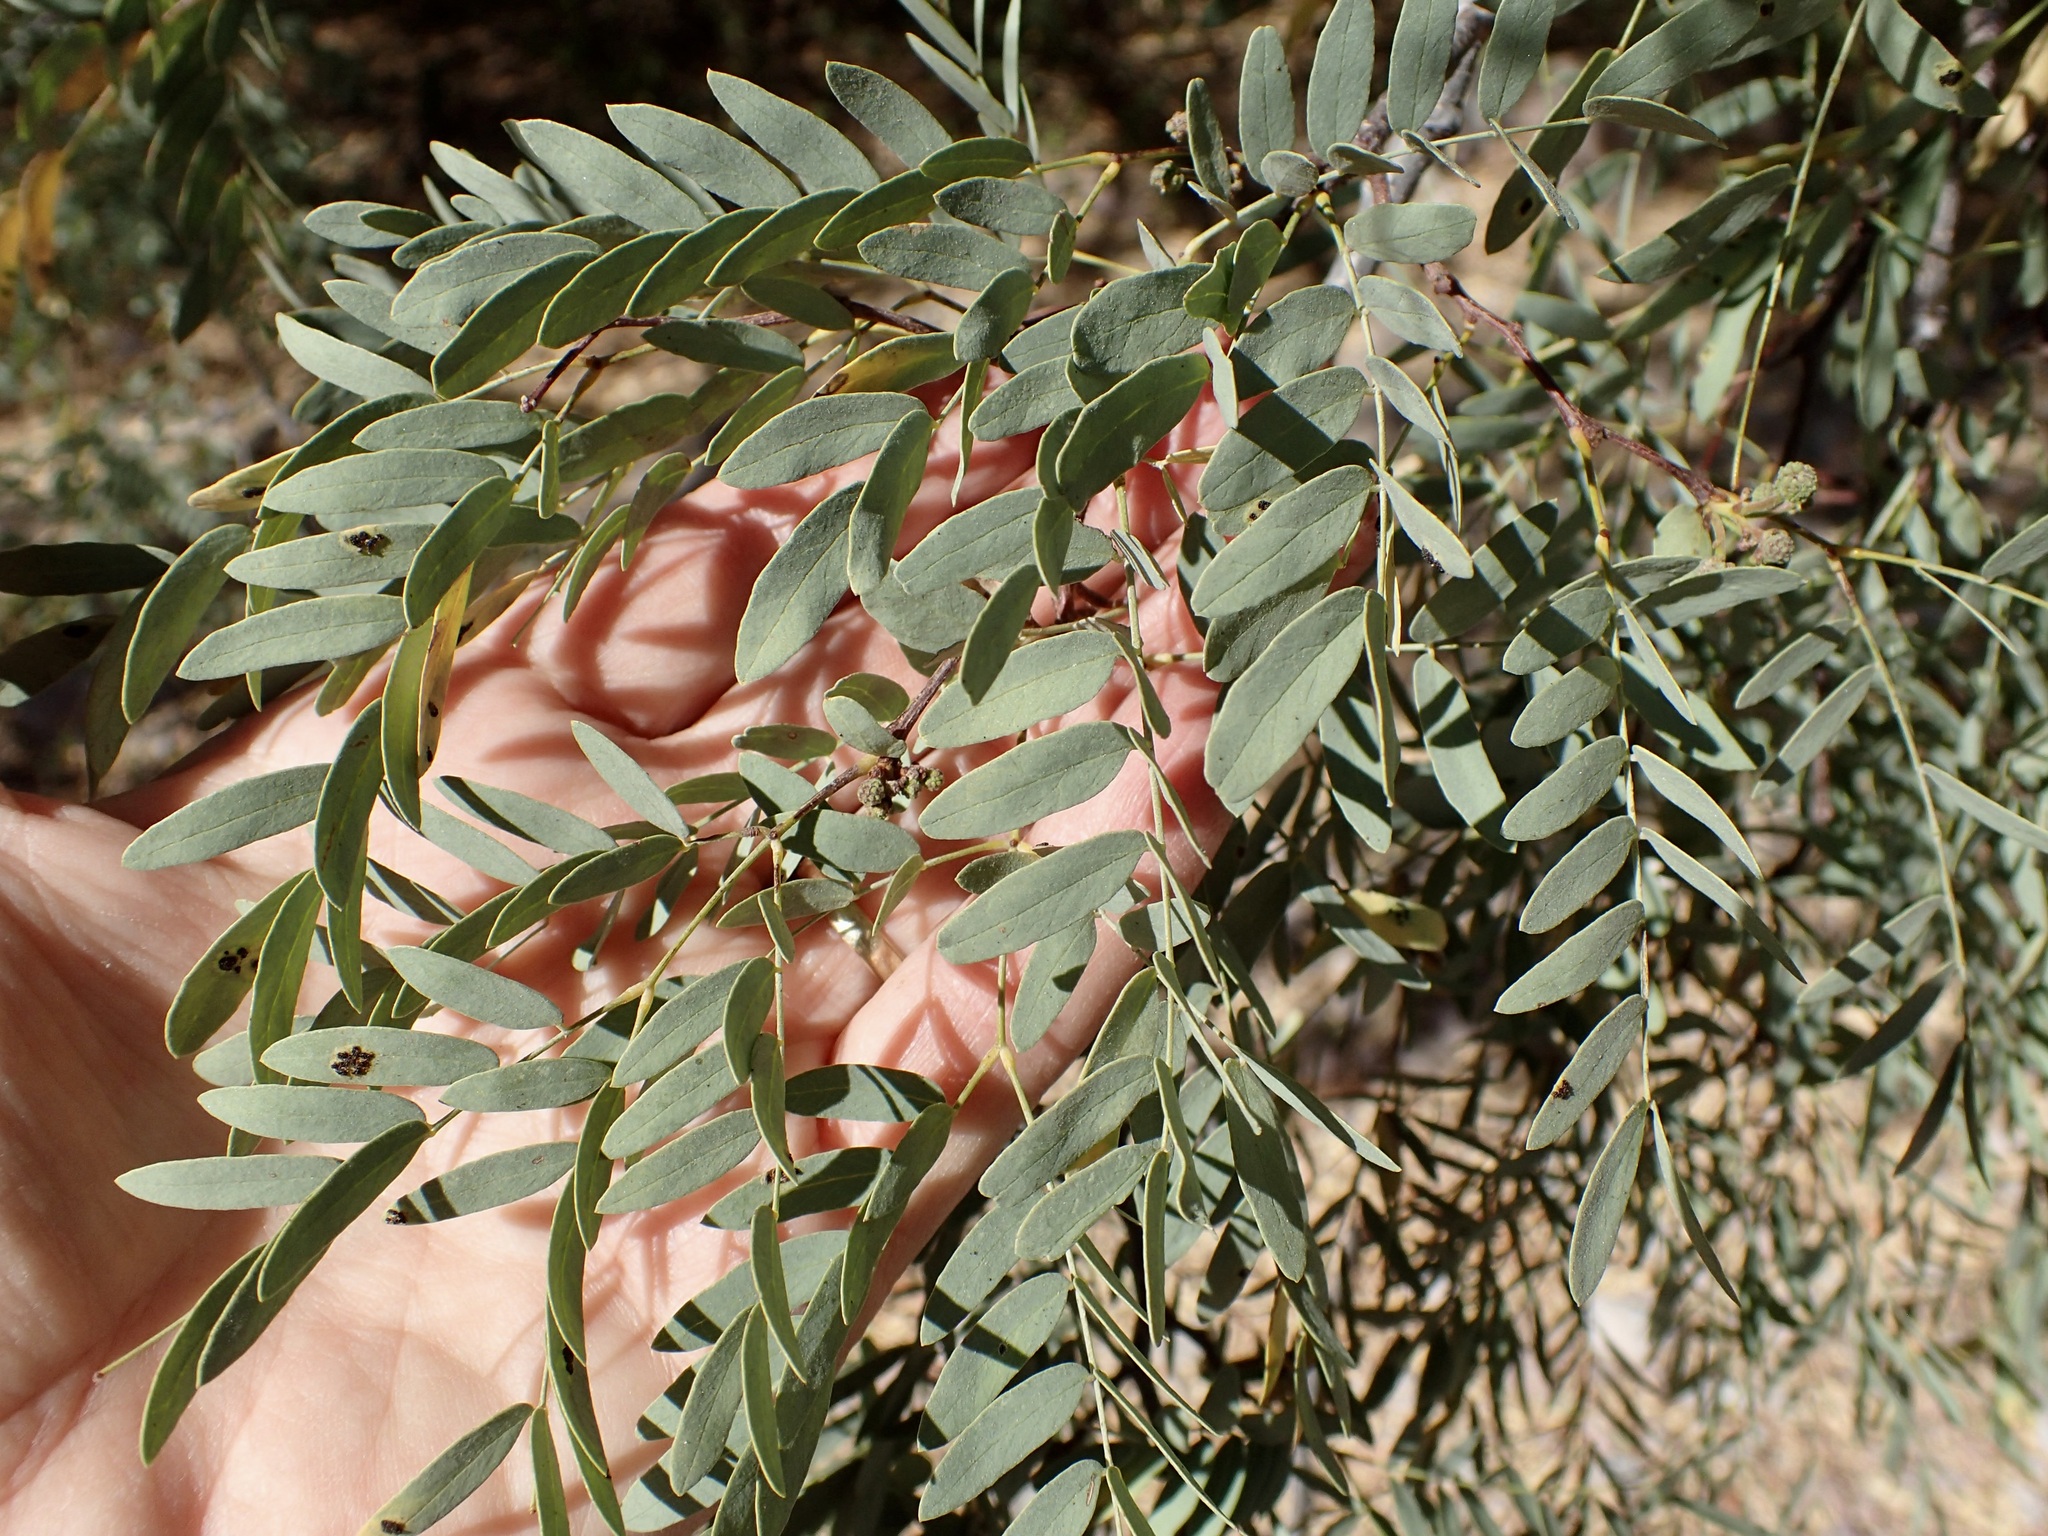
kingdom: Plantae
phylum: Tracheophyta
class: Magnoliopsida
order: Fabales
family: Fabaceae
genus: Lysiloma
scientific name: Lysiloma candidum
